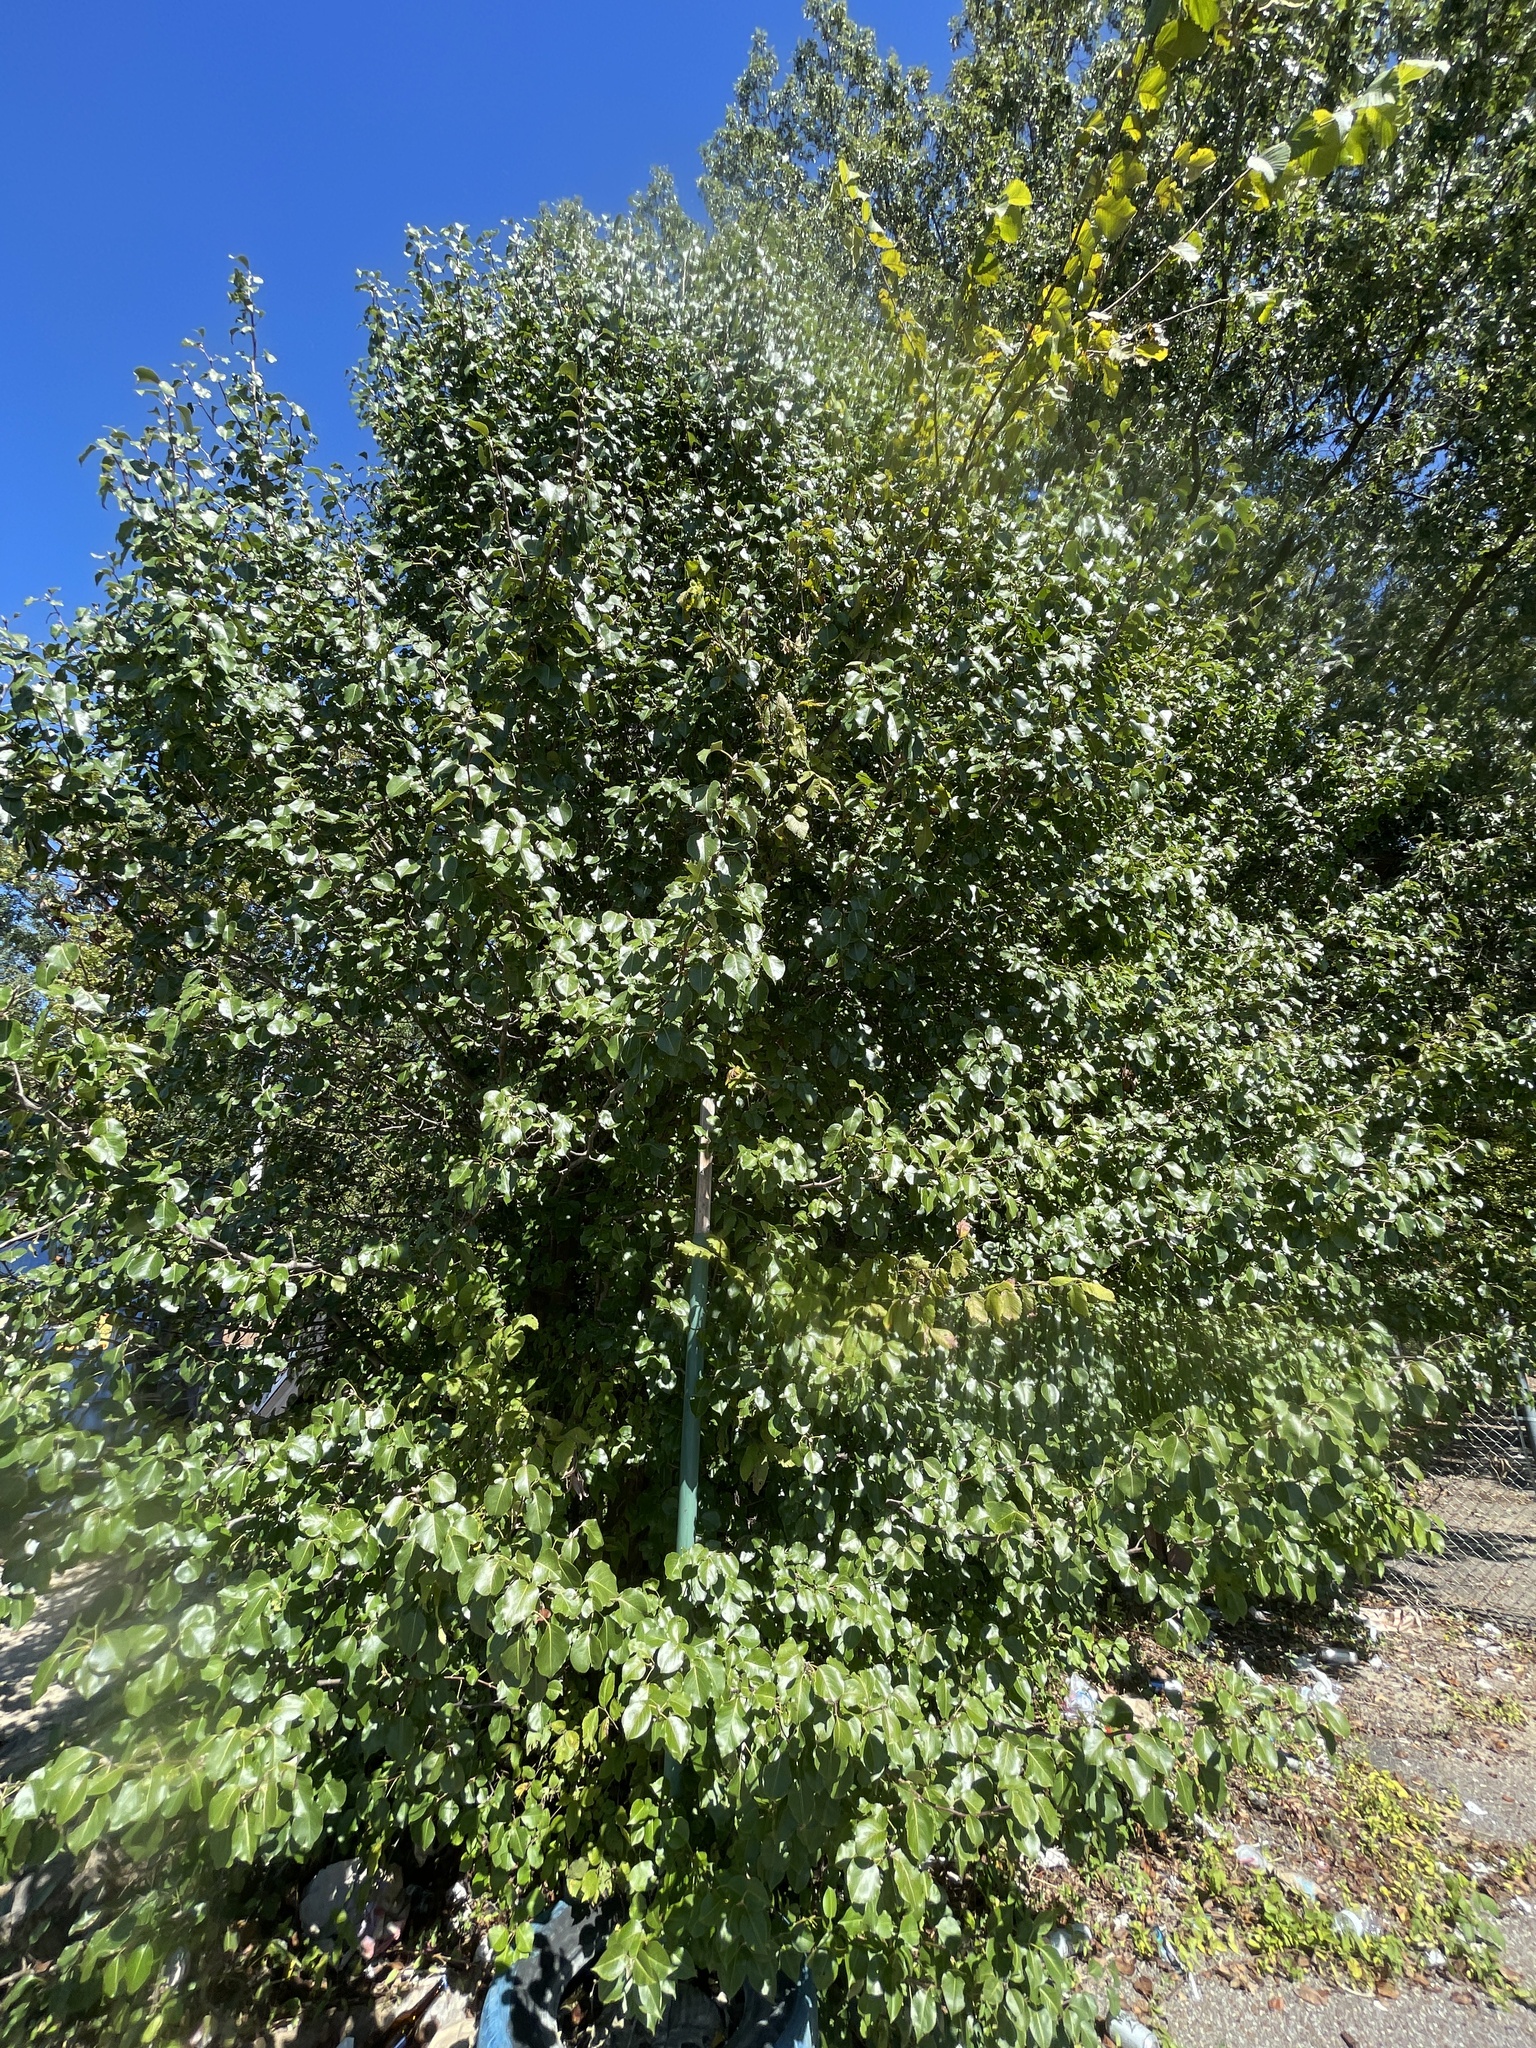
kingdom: Plantae
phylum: Tracheophyta
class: Magnoliopsida
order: Rosales
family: Rosaceae
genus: Pyrus
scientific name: Pyrus calleryana
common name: Callery pear
